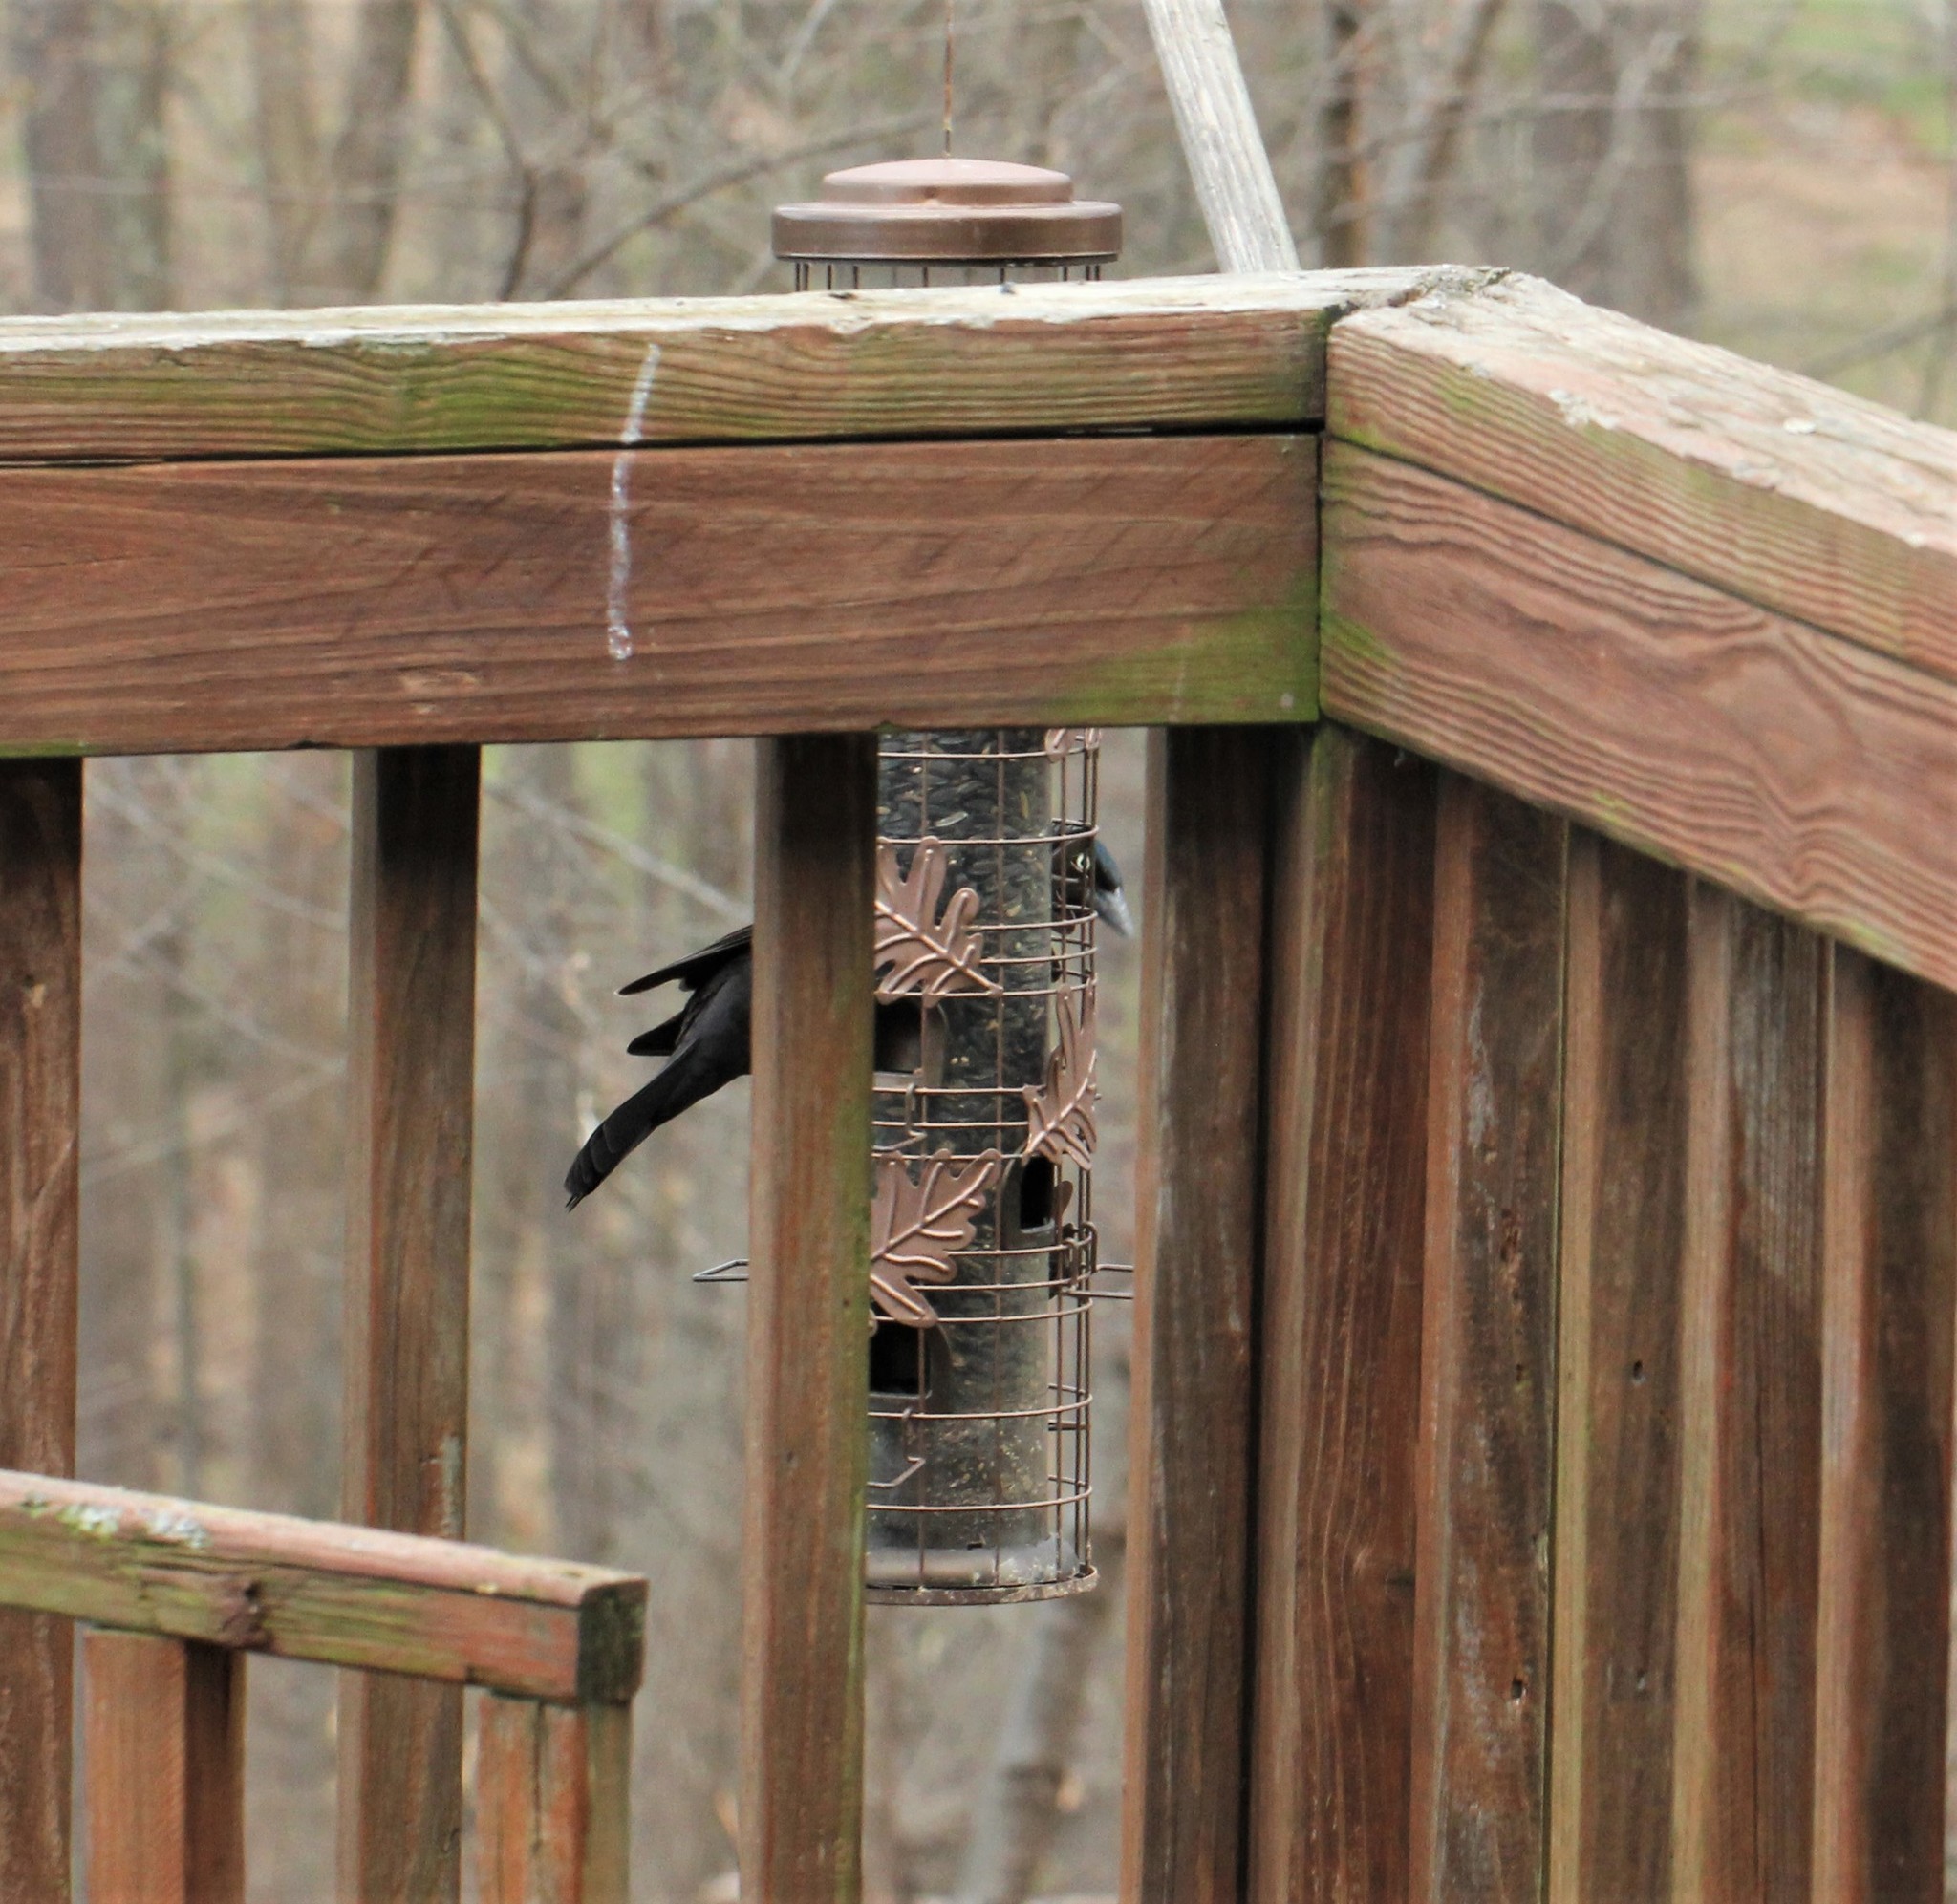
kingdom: Animalia
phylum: Chordata
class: Aves
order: Passeriformes
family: Icteridae
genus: Quiscalus
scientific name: Quiscalus quiscula
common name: Common grackle
